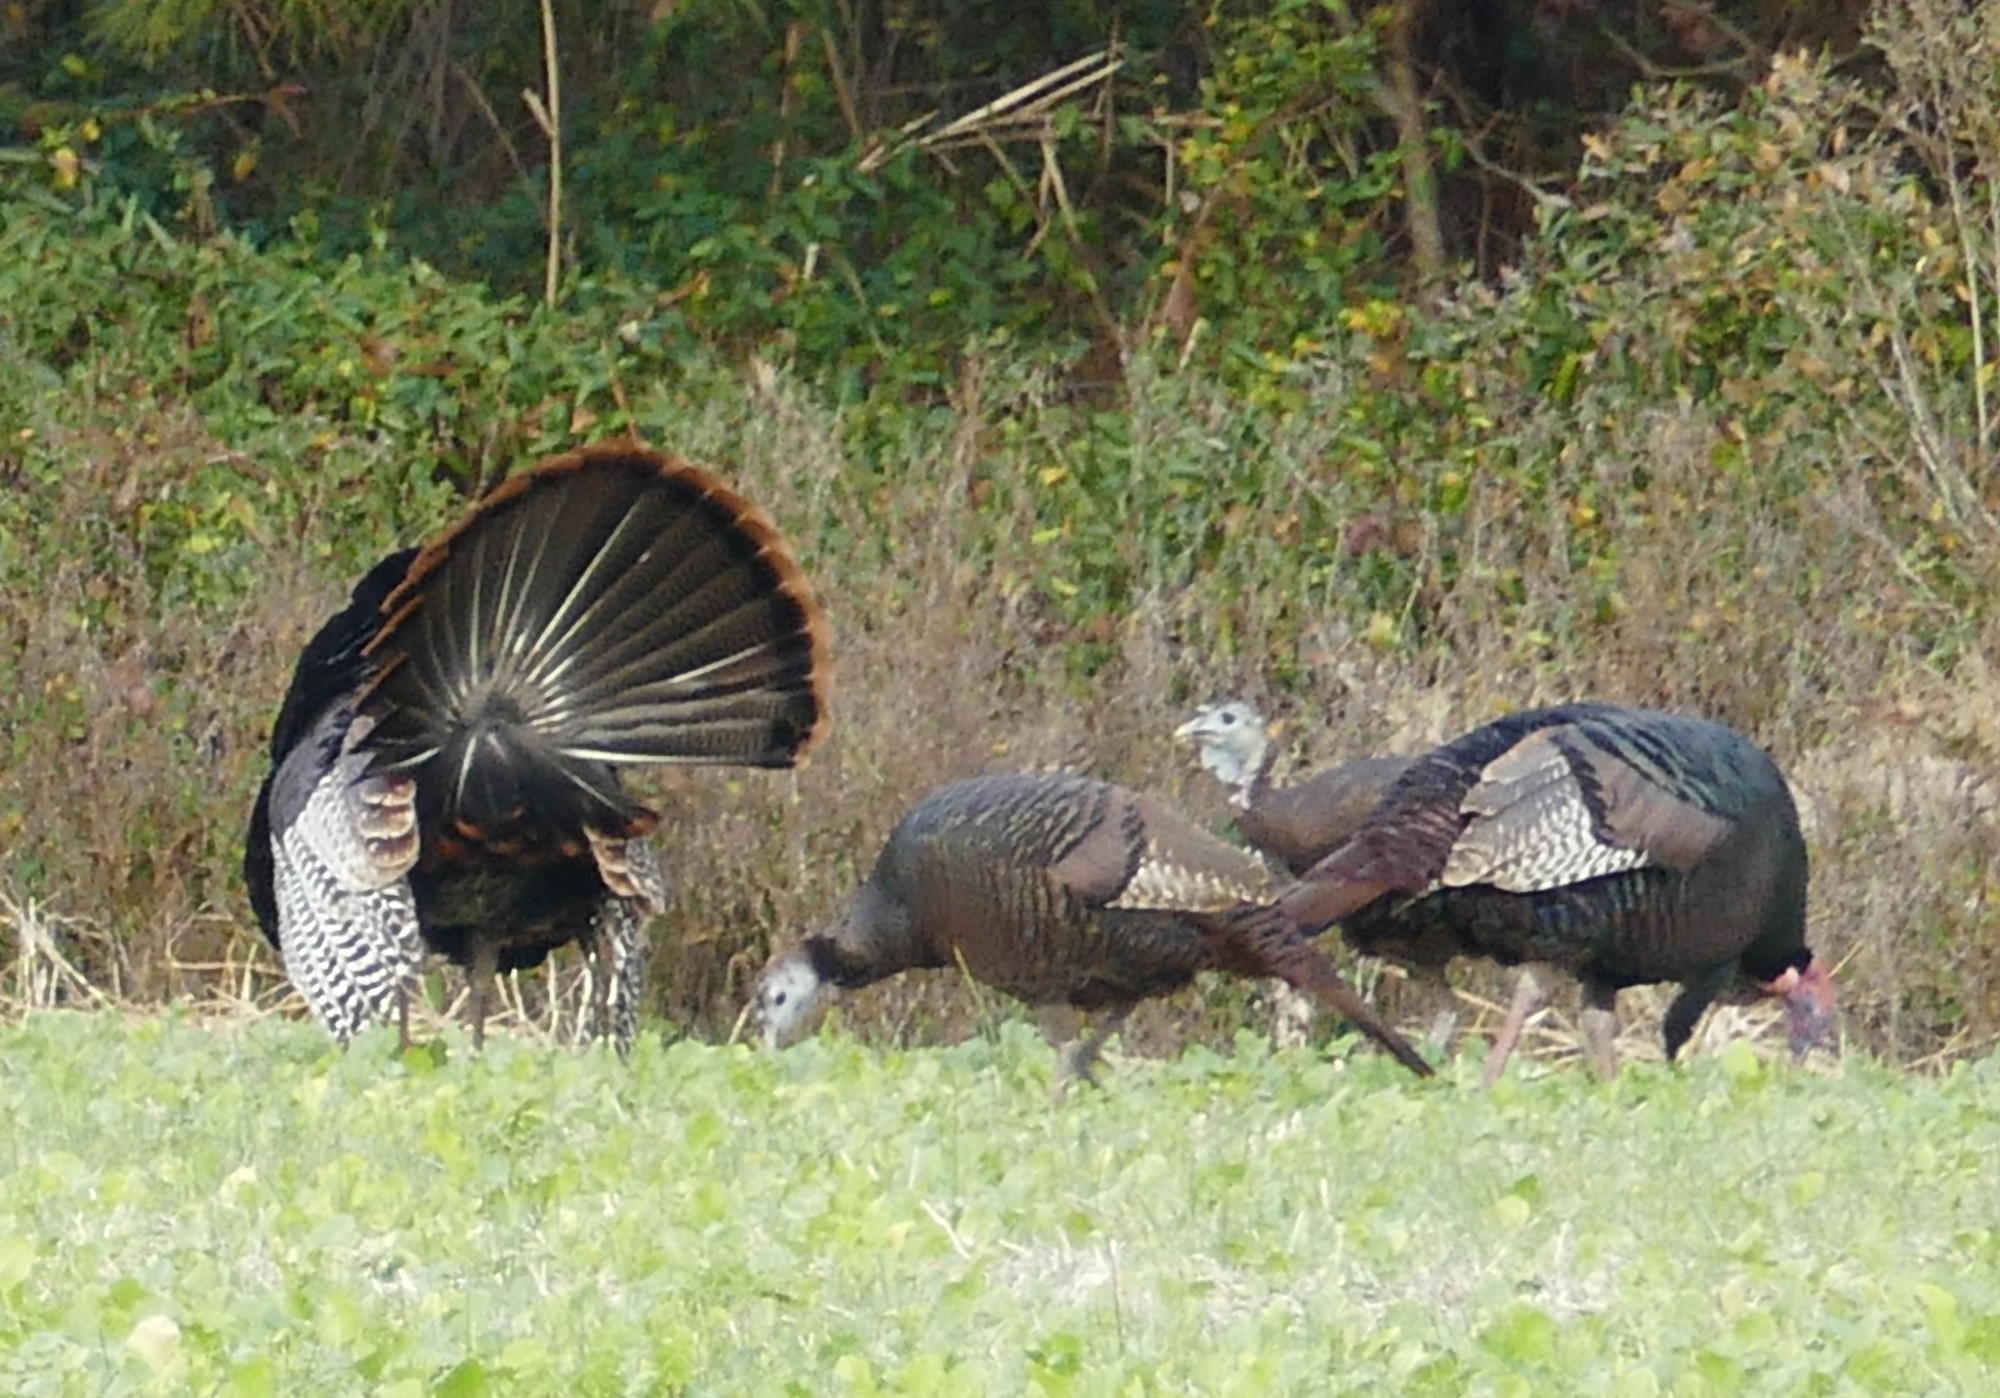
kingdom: Animalia
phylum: Chordata
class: Aves
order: Galliformes
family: Phasianidae
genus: Meleagris
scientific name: Meleagris gallopavo
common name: Wild turkey
